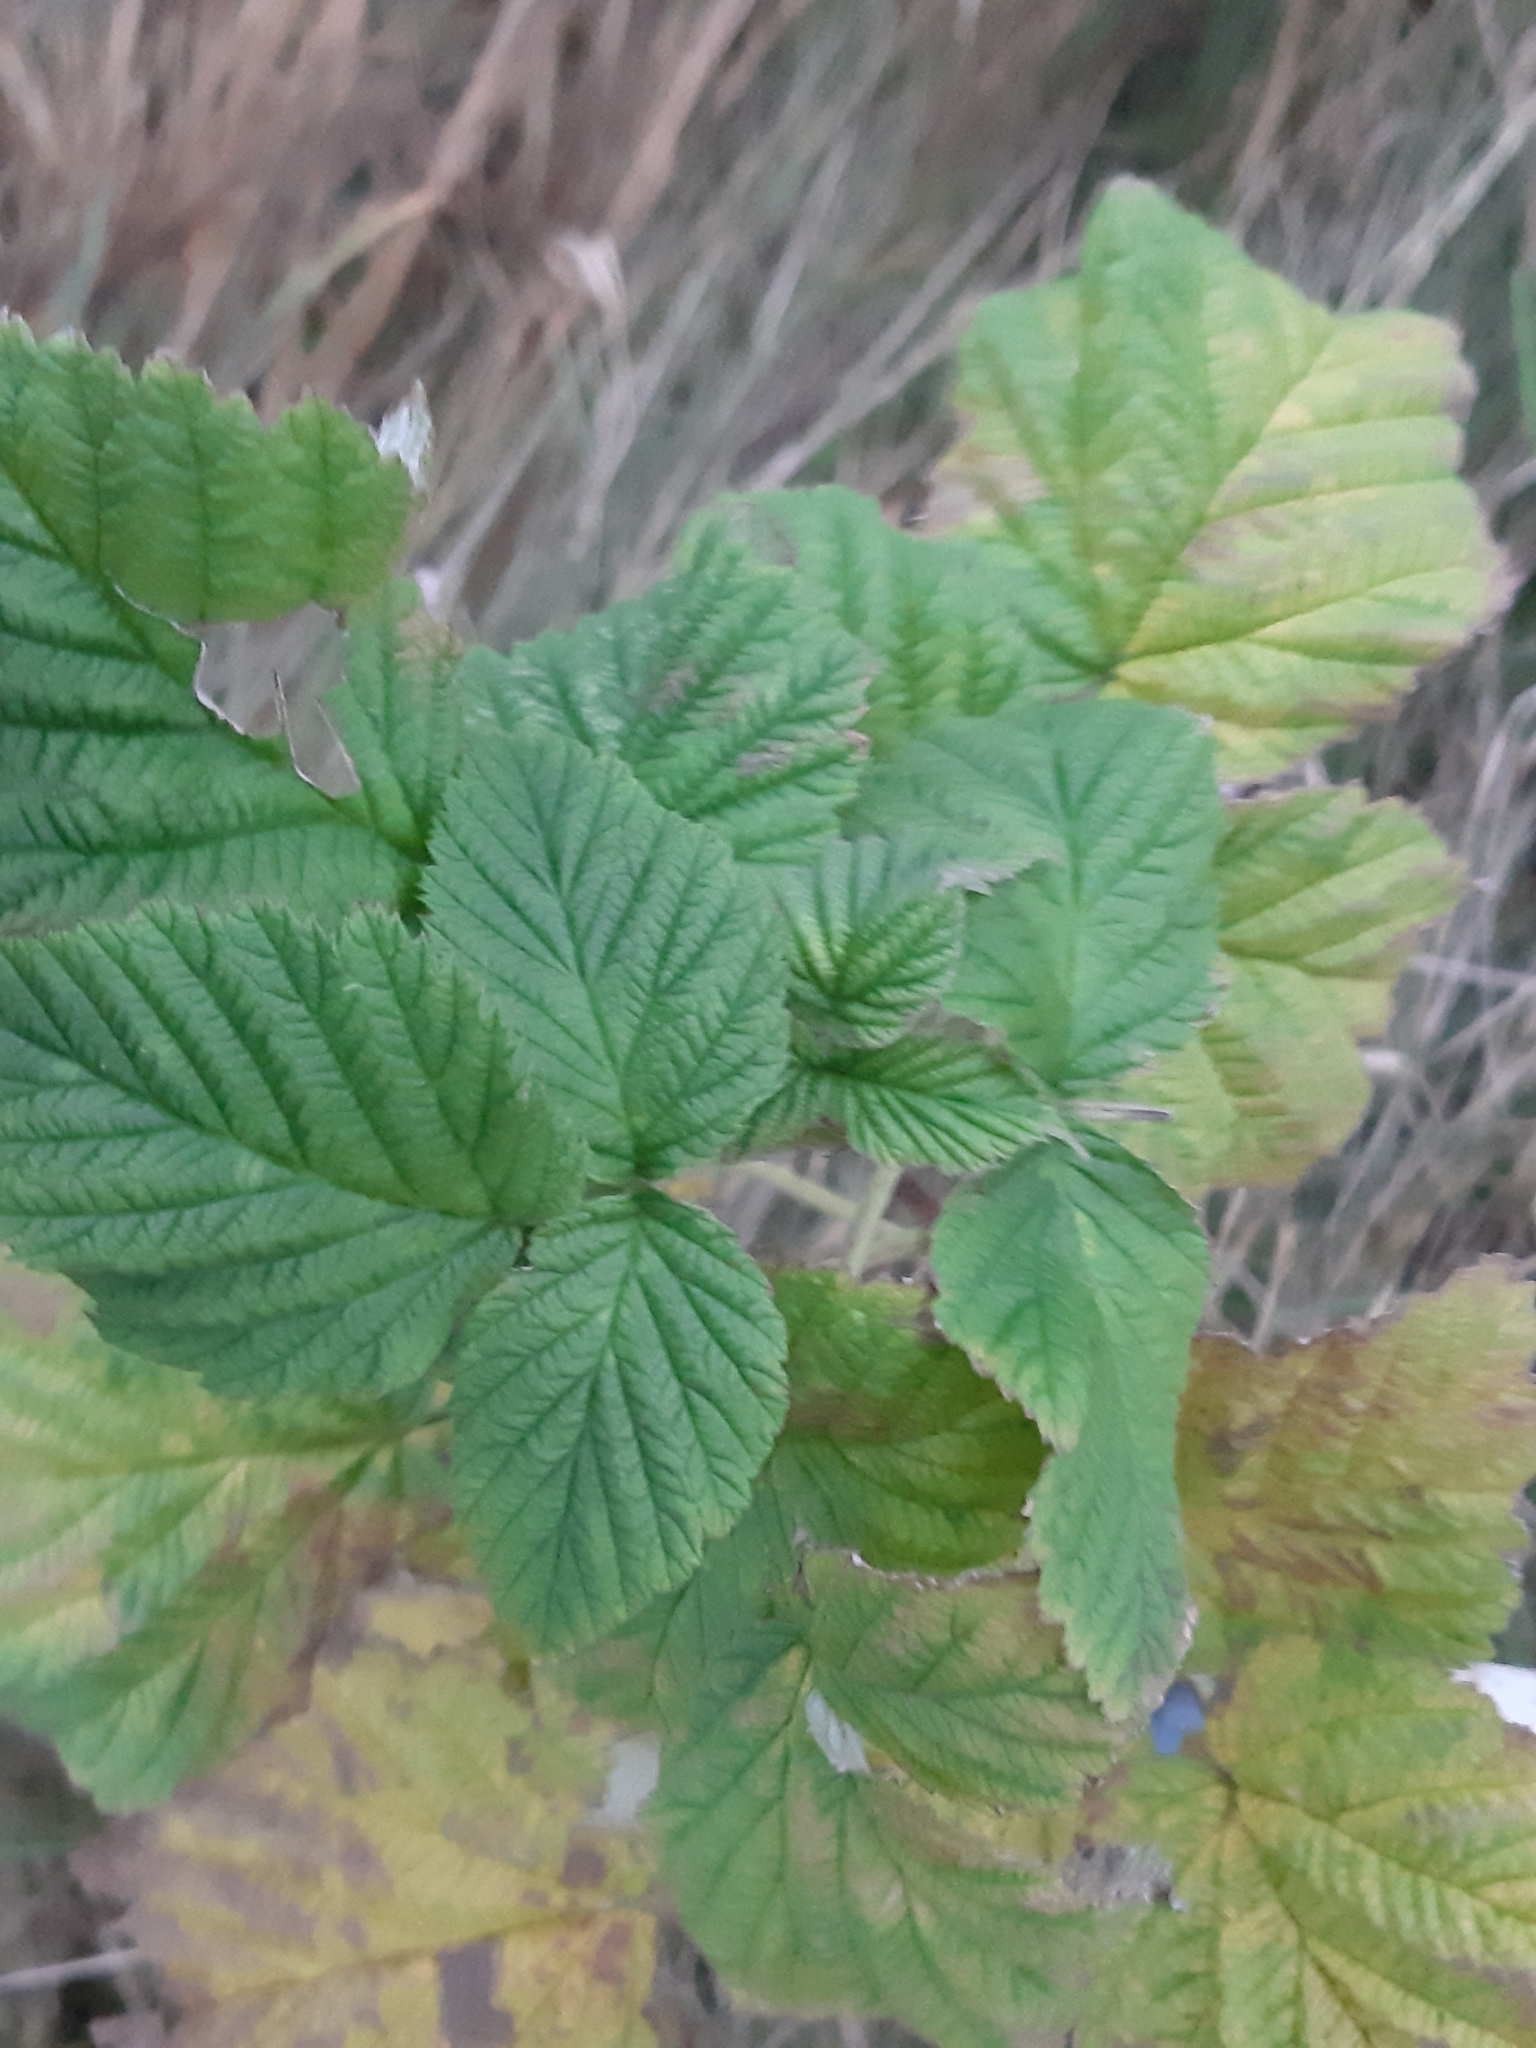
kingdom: Plantae
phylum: Tracheophyta
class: Magnoliopsida
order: Rosales
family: Rosaceae
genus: Rubus
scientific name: Rubus idaeus
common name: Raspberry
